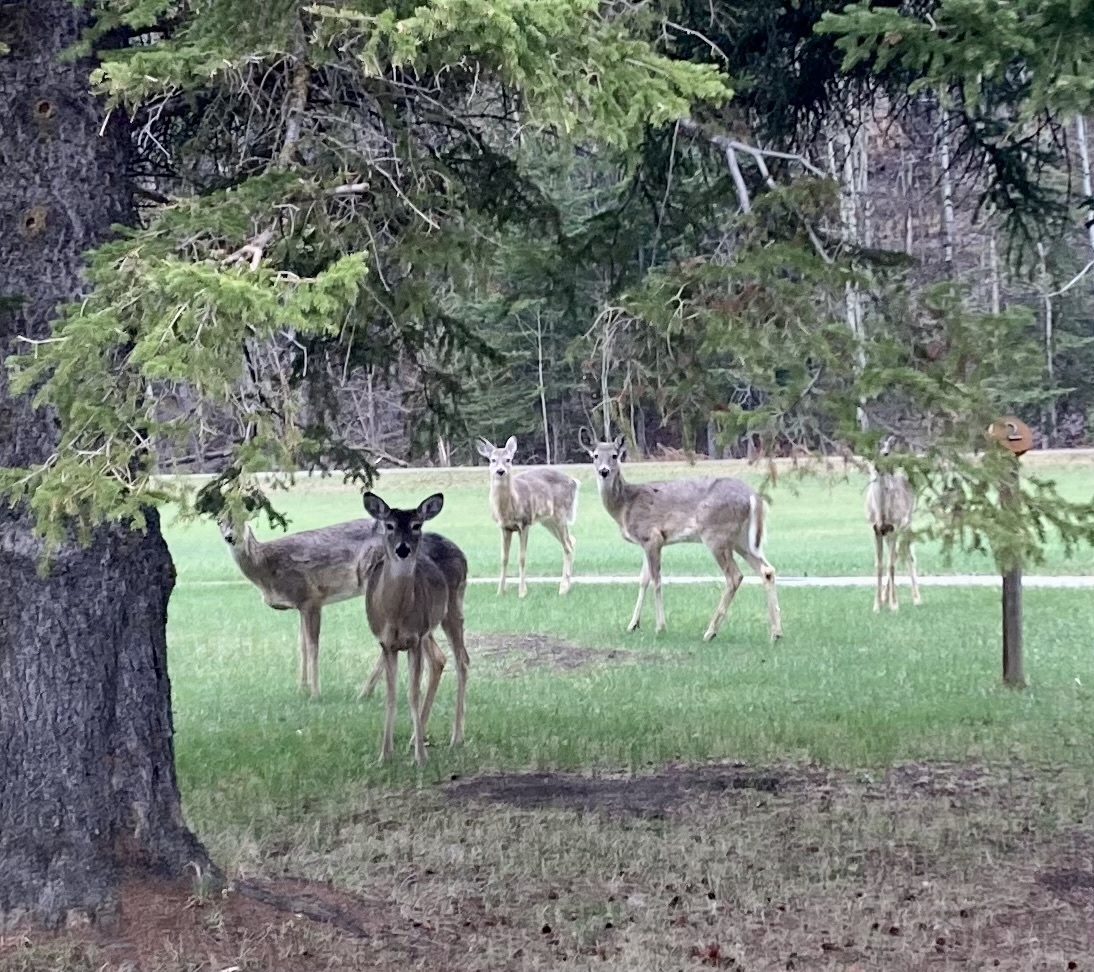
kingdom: Animalia
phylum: Chordata
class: Mammalia
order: Artiodactyla
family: Cervidae
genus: Odocoileus
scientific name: Odocoileus virginianus
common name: White-tailed deer
